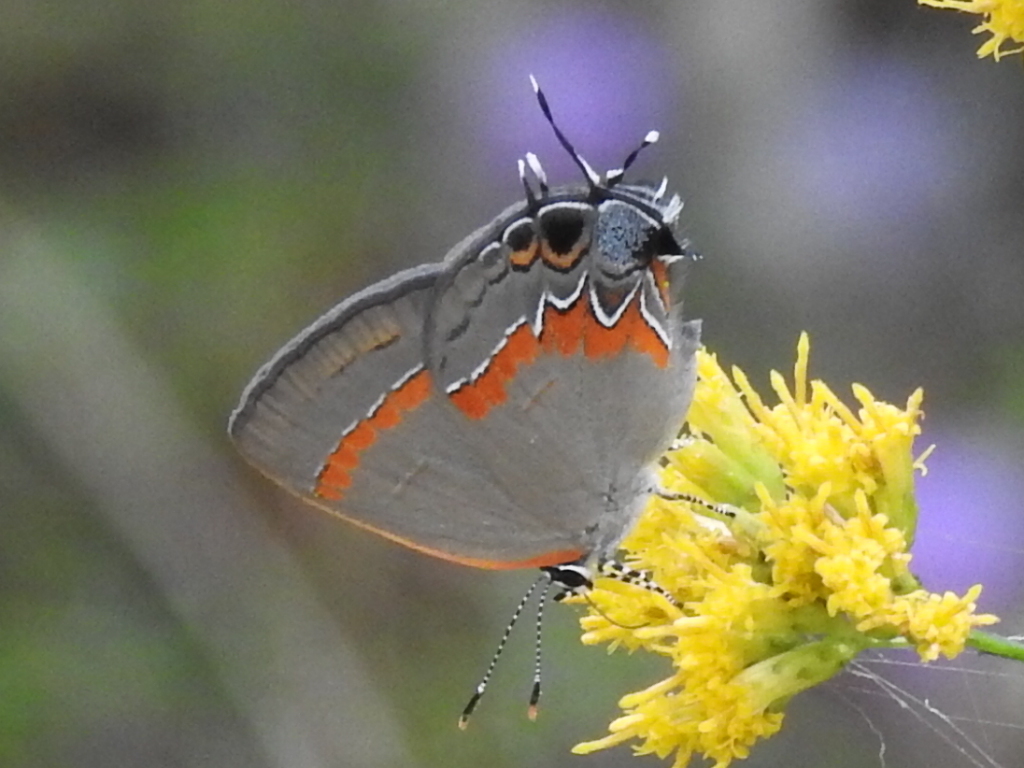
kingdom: Animalia
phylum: Arthropoda
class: Insecta
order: Lepidoptera
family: Lycaenidae
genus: Calycopis
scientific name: Calycopis cecrops
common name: Red-banded hairstreak
